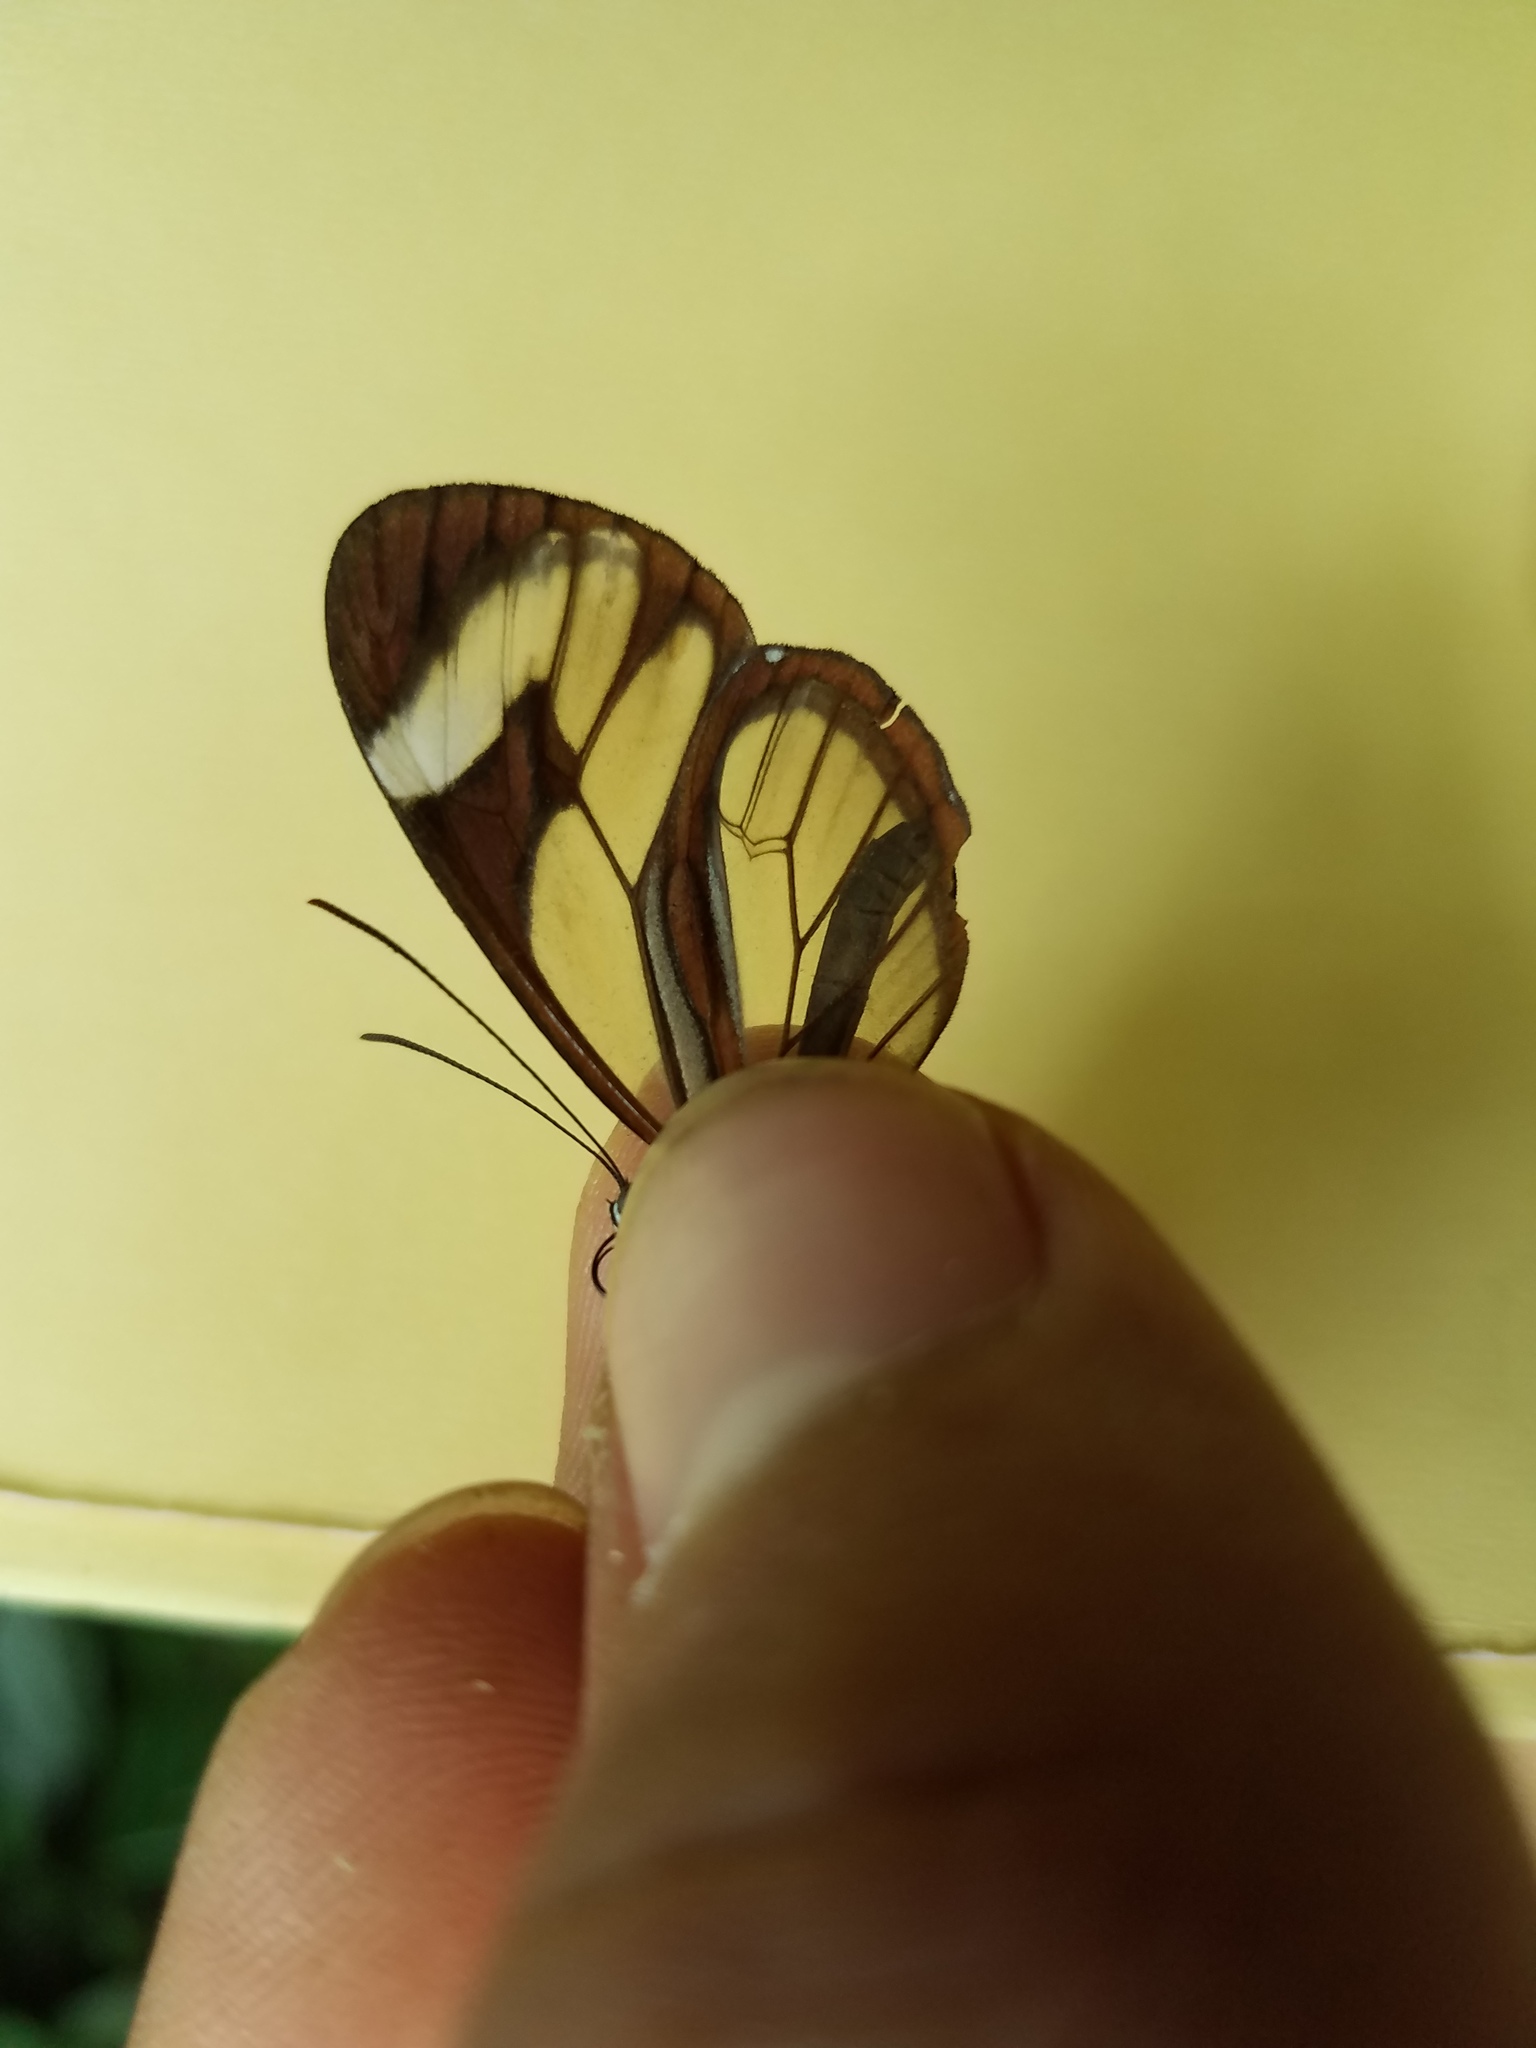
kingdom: Animalia
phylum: Arthropoda
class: Insecta
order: Lepidoptera
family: Nymphalidae
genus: Ithomia
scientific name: Ithomia patilla
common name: Patilla clearwing
